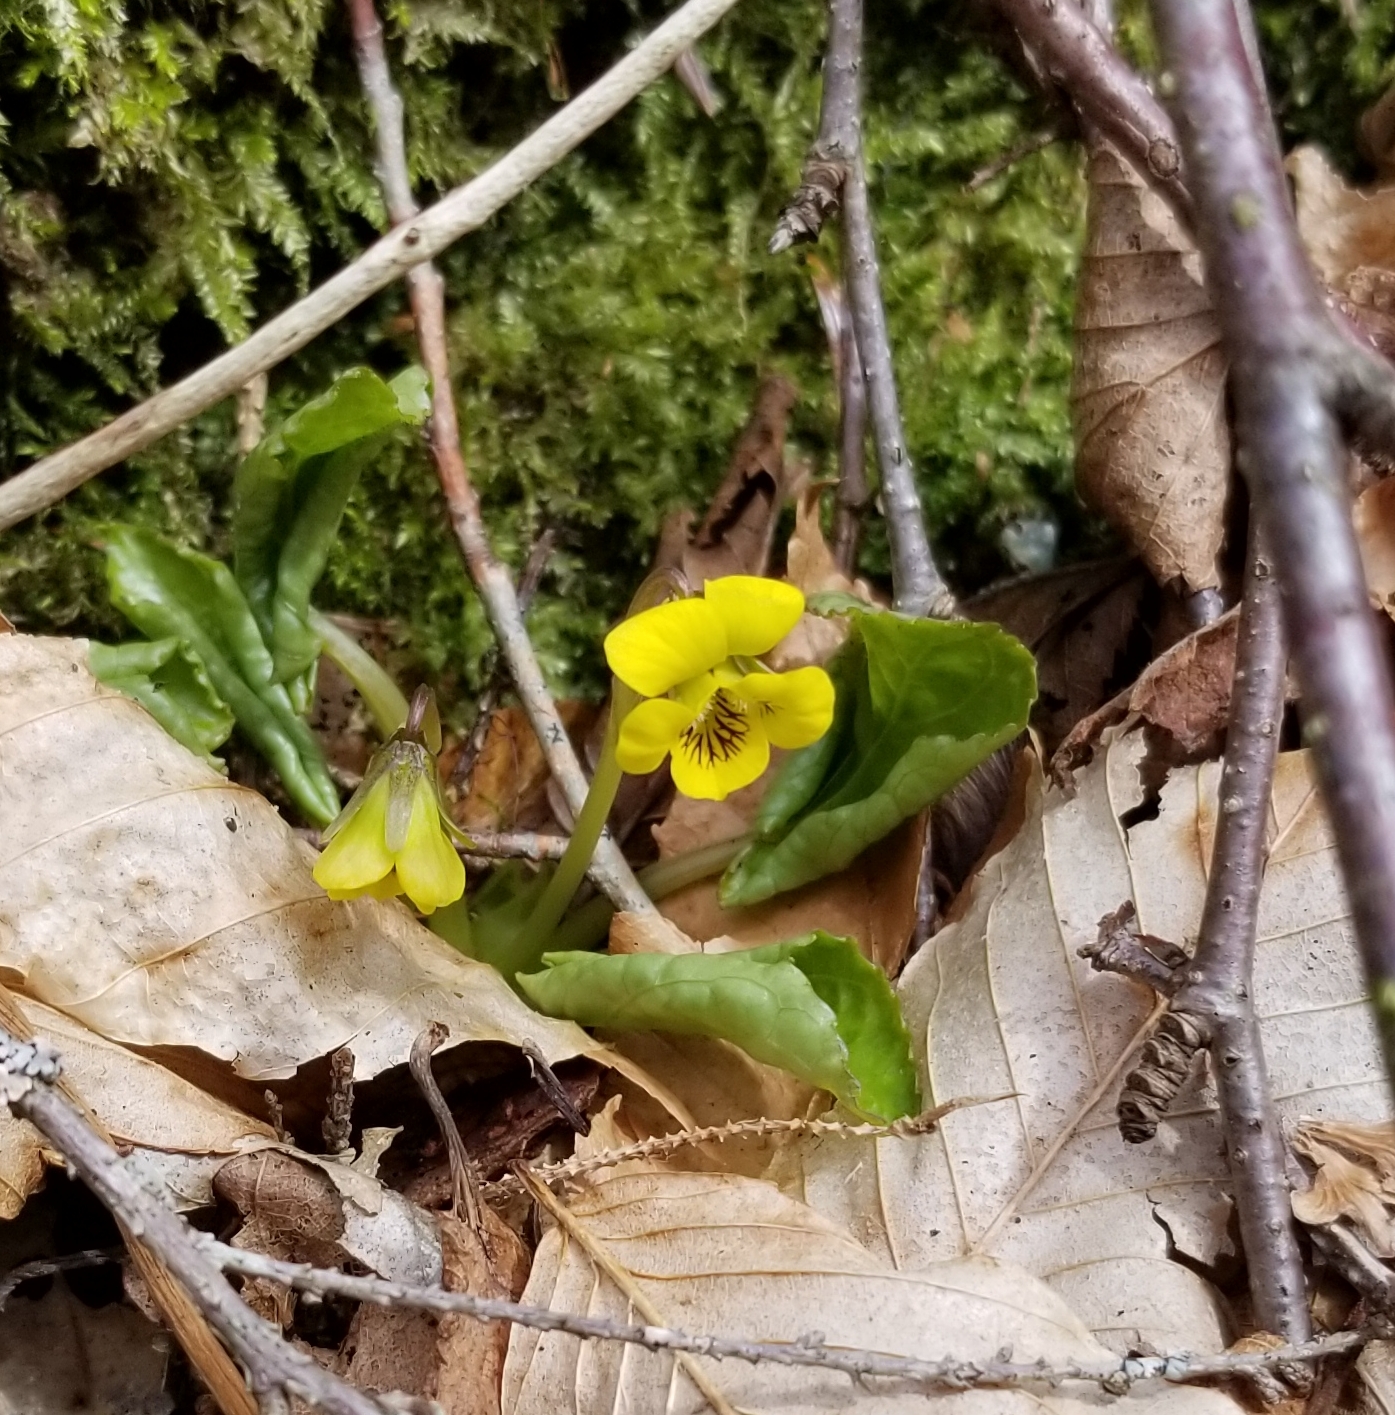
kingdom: Plantae
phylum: Tracheophyta
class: Magnoliopsida
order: Malpighiales
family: Violaceae
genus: Viola
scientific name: Viola rotundifolia
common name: Early yellow violet
